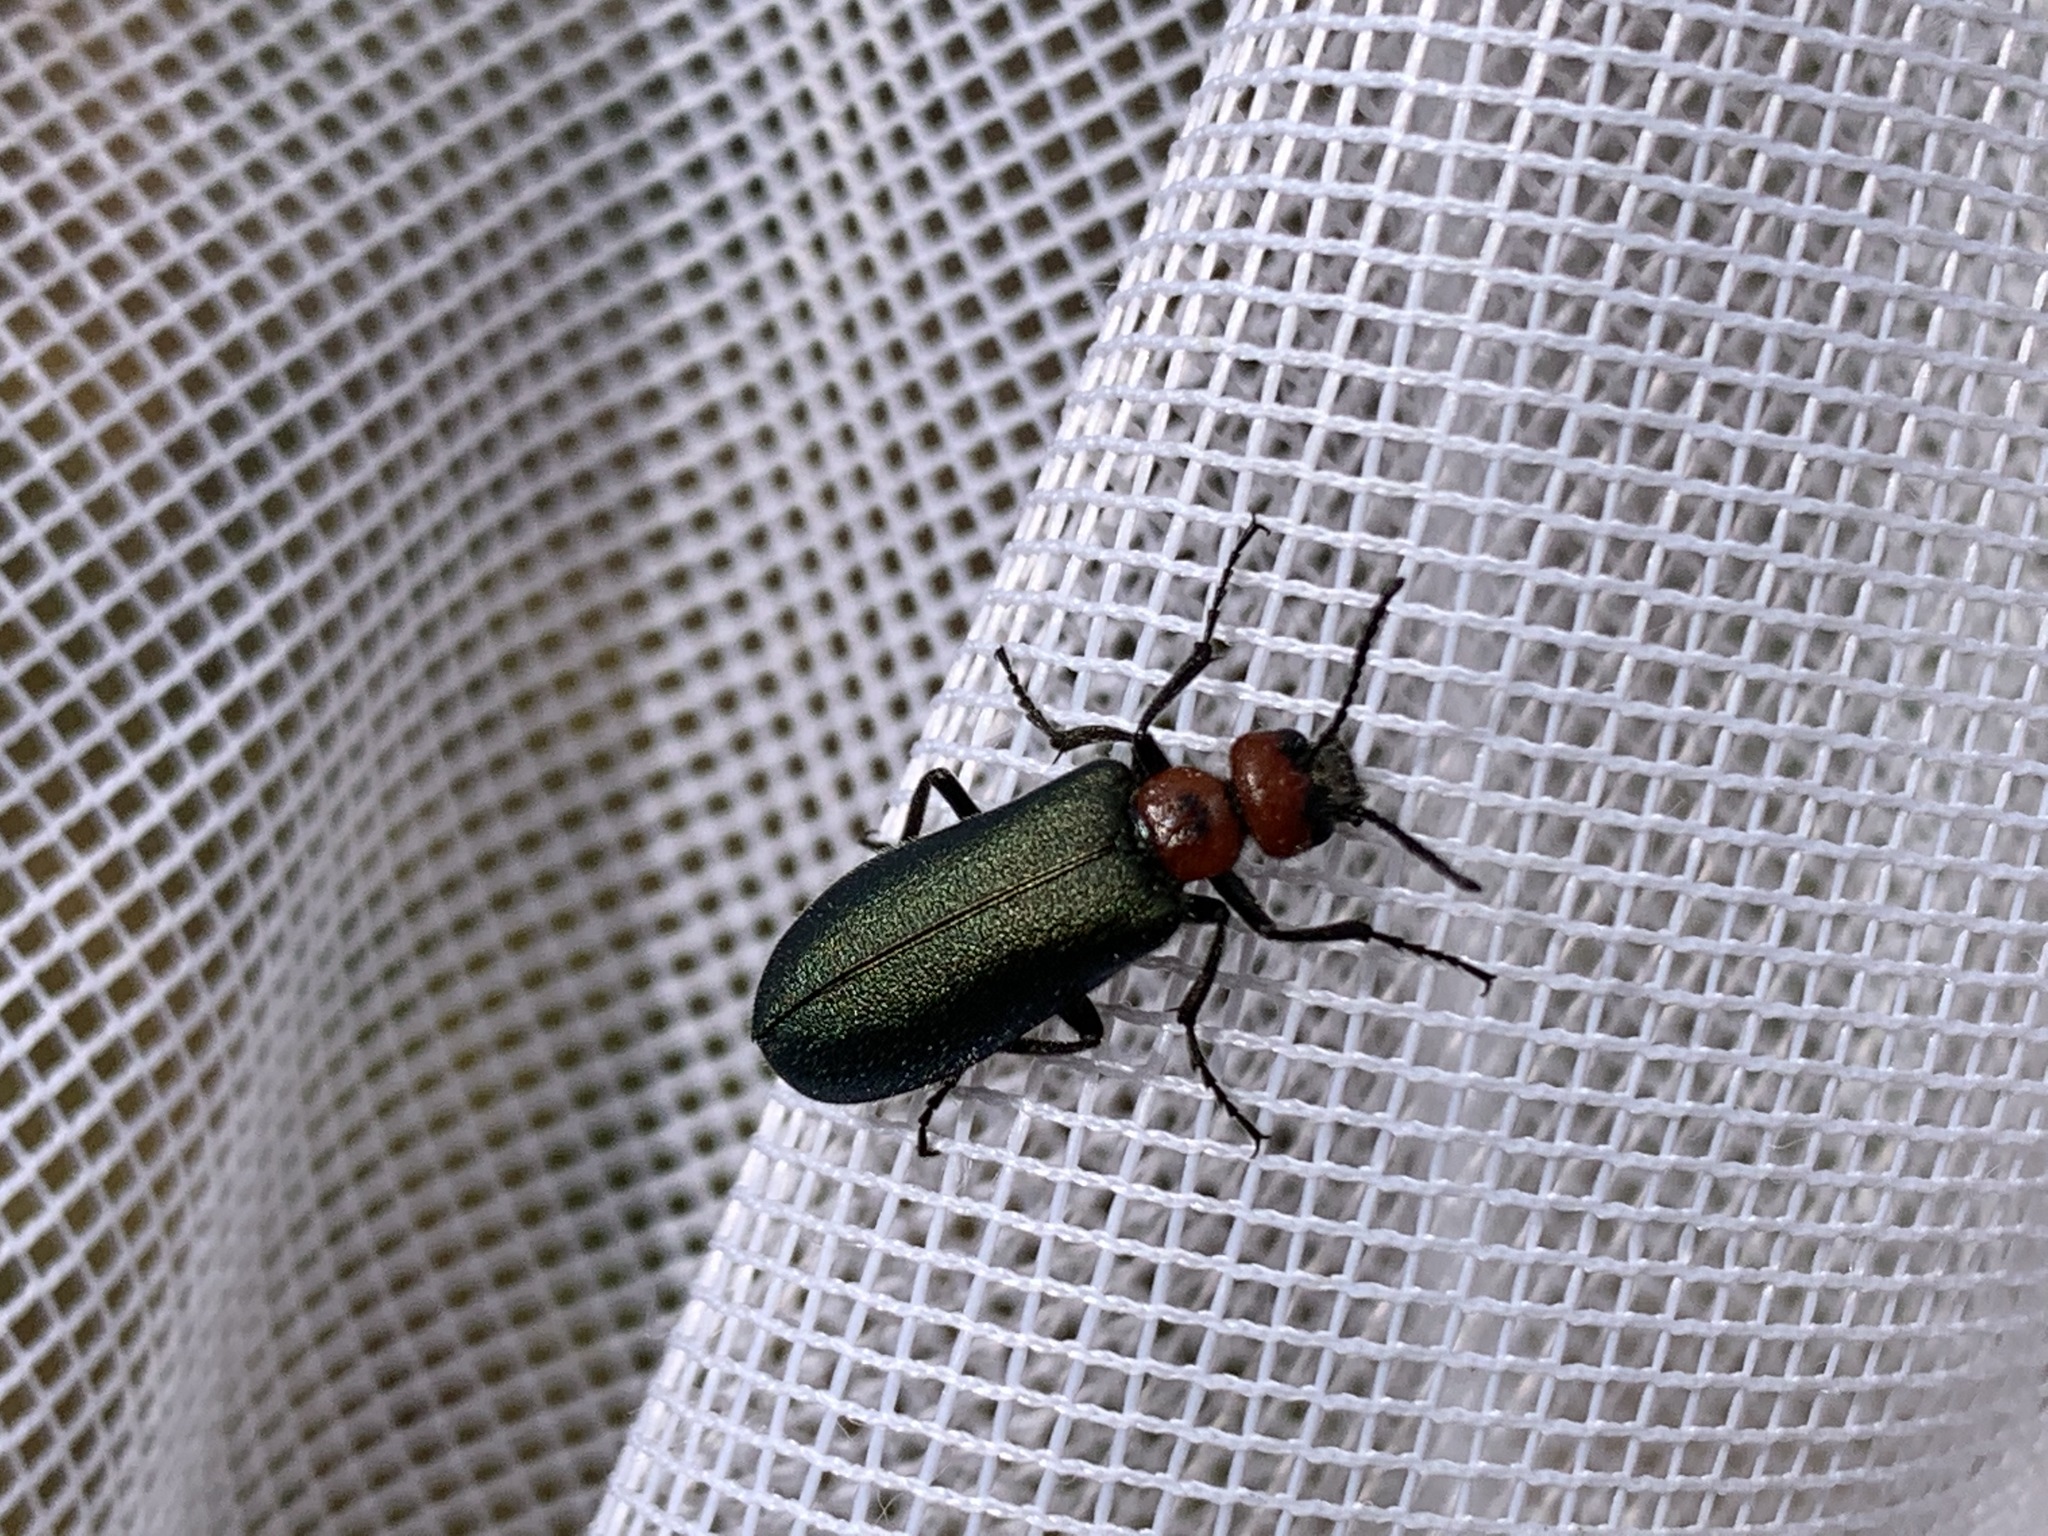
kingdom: Animalia
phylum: Arthropoda
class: Insecta
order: Coleoptera
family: Meloidae
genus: Lytta
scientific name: Lytta aeneipennis
